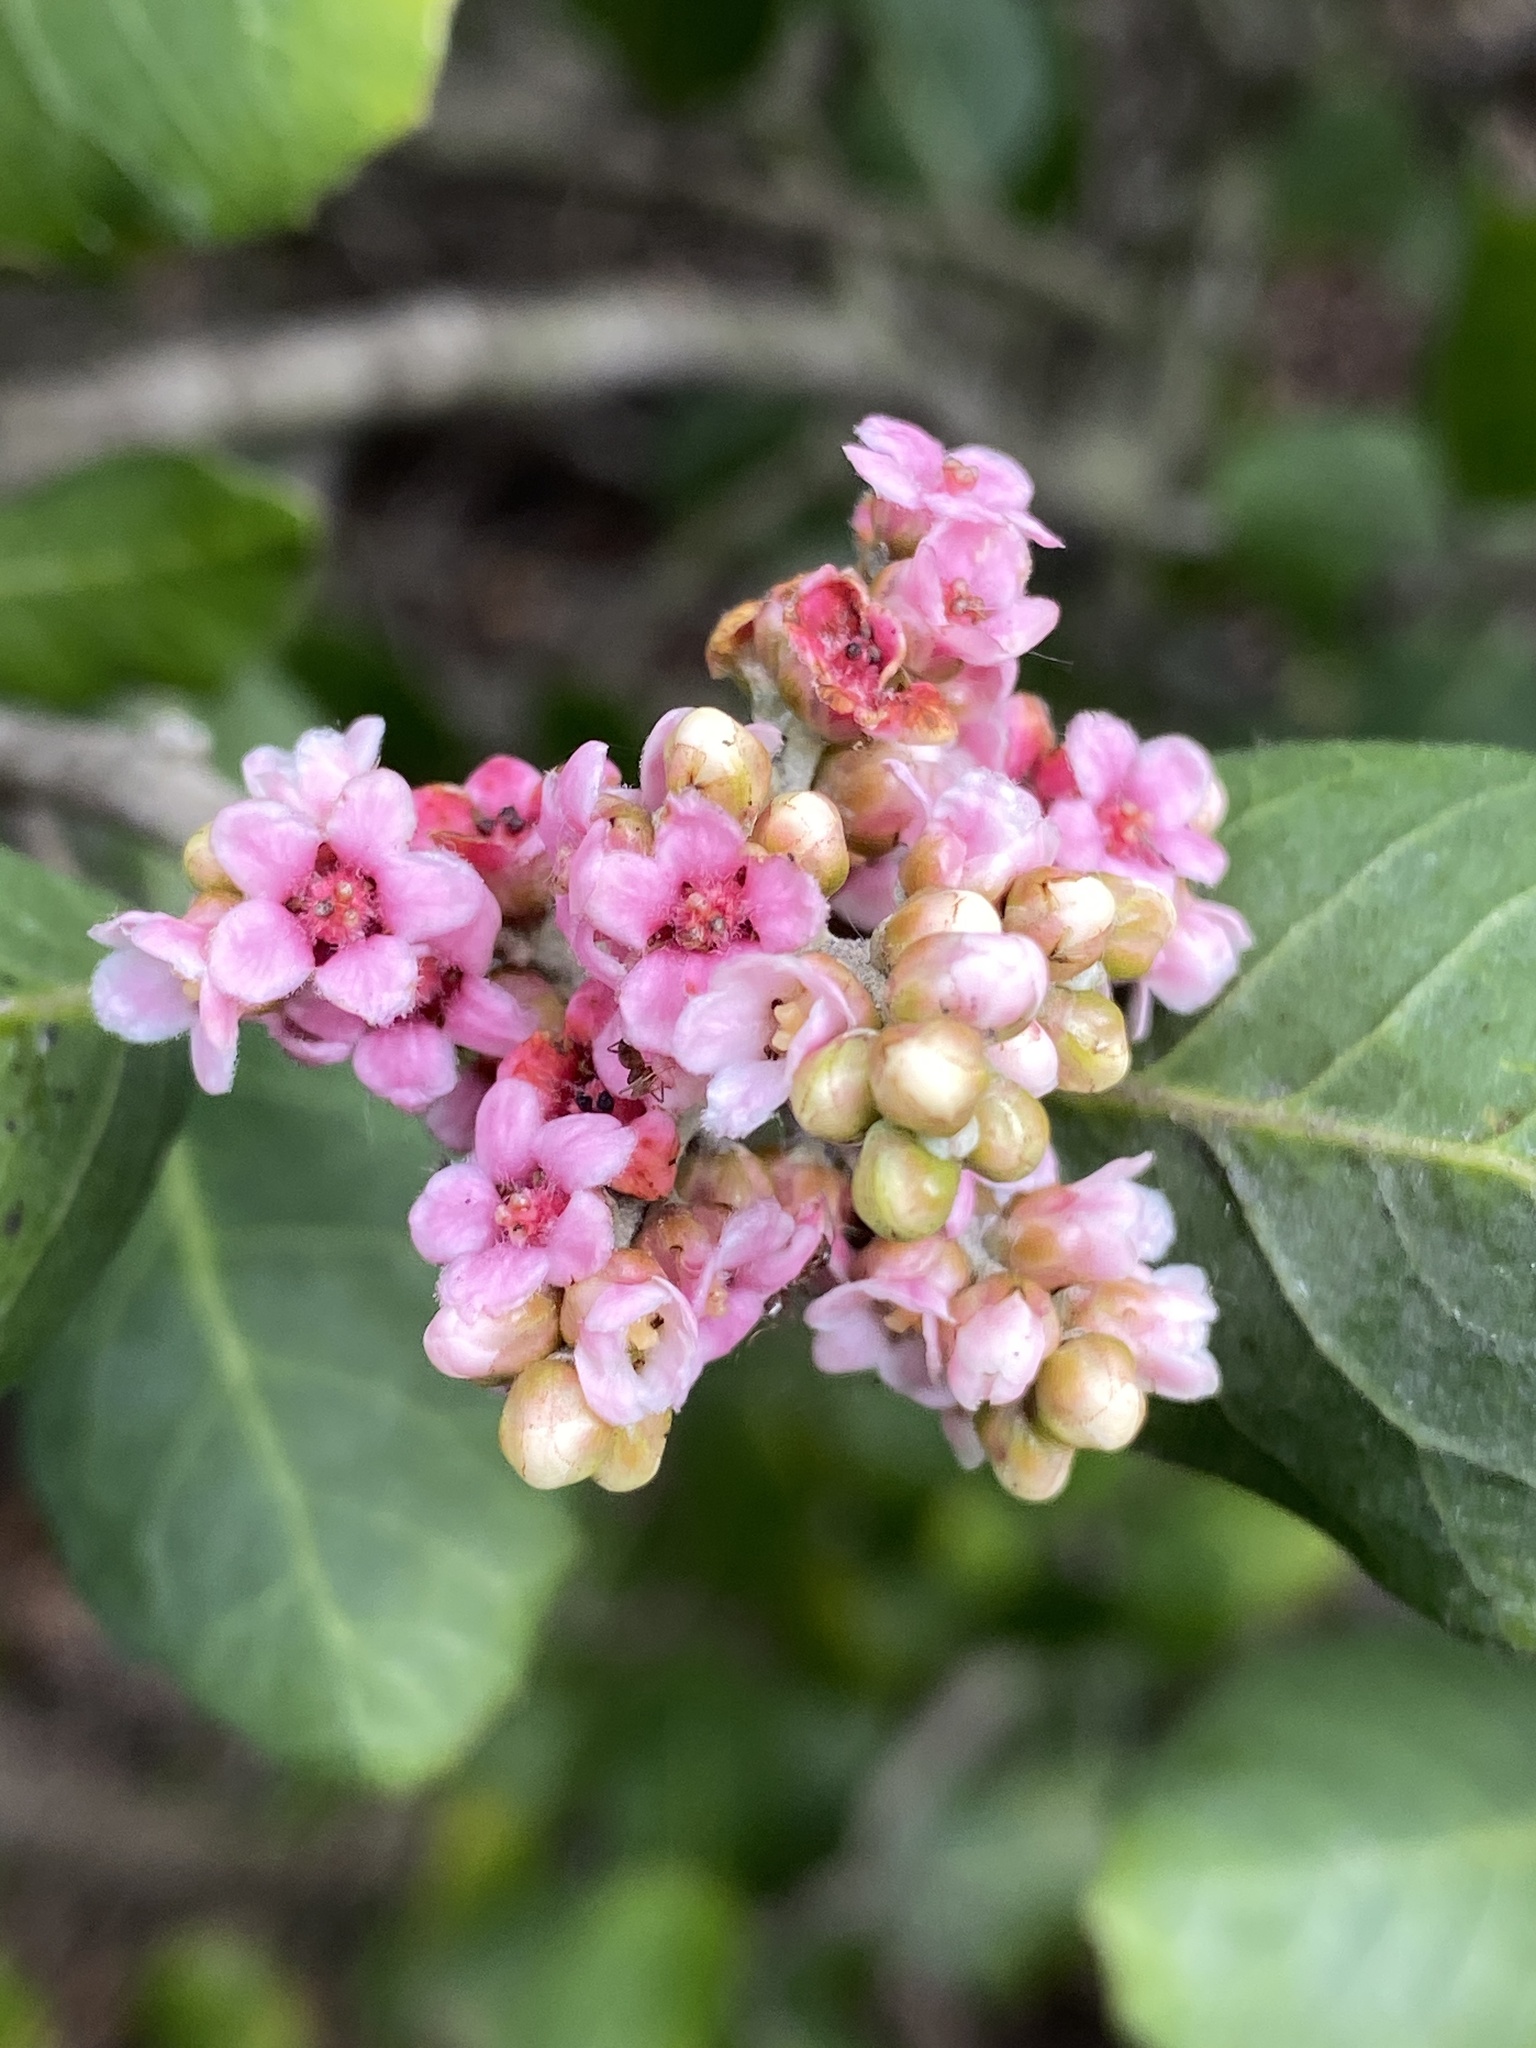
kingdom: Plantae
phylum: Tracheophyta
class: Magnoliopsida
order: Sapindales
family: Anacardiaceae
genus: Rhus
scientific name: Rhus integrifolia
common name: Lemonade sumac
